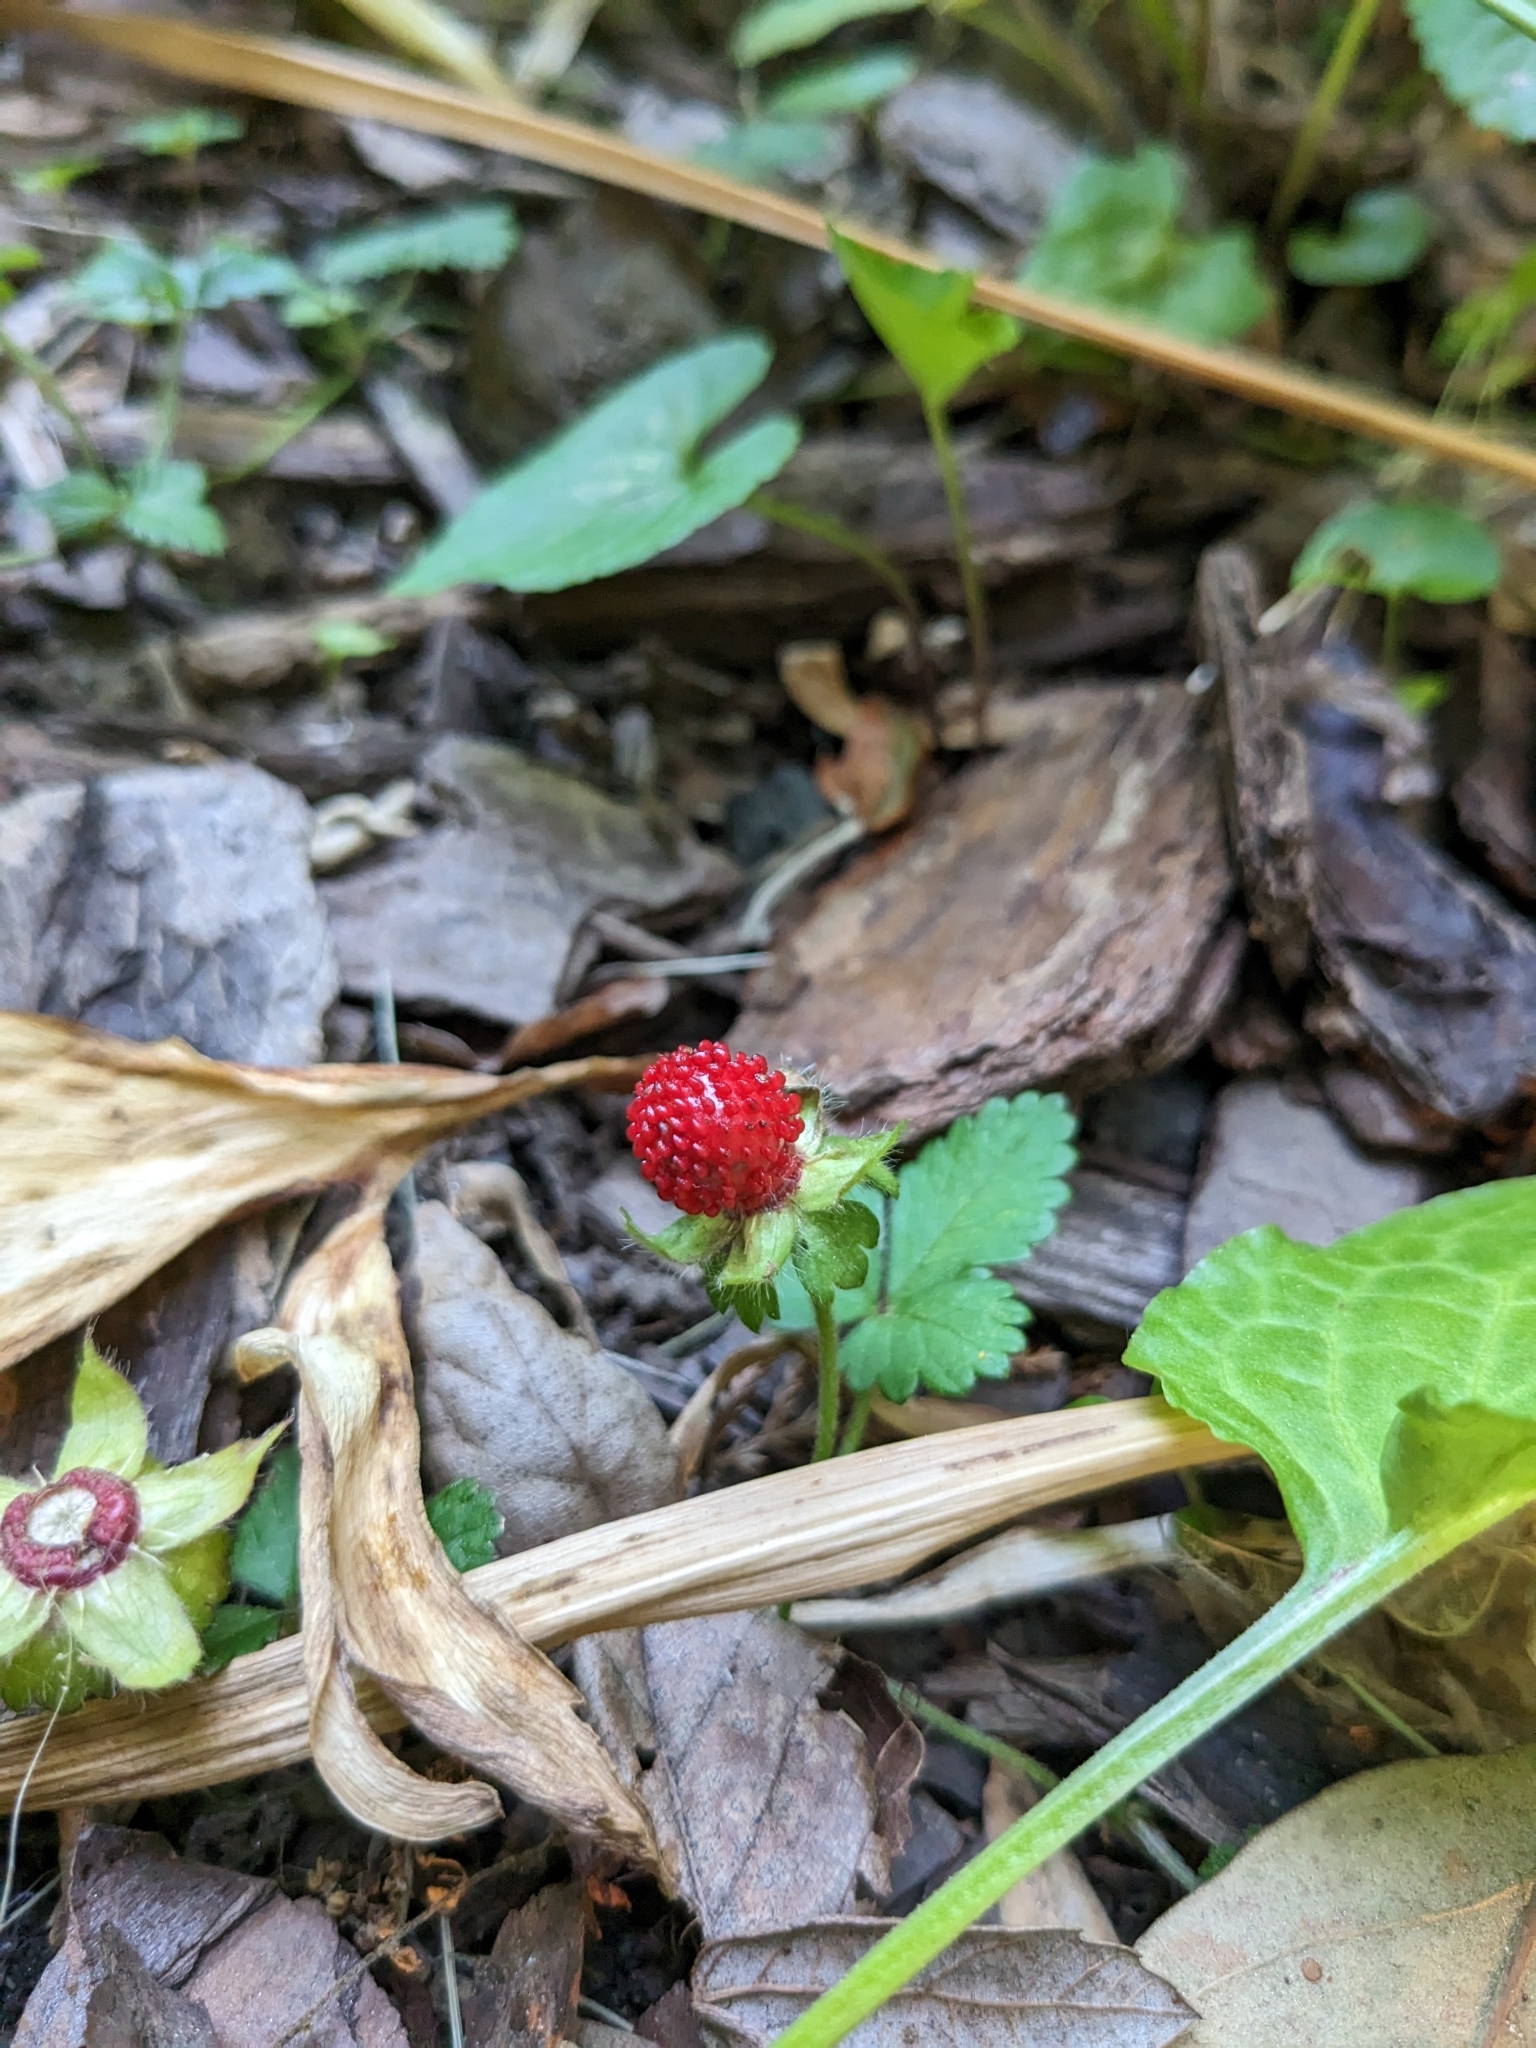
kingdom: Plantae
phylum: Tracheophyta
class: Magnoliopsida
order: Rosales
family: Rosaceae
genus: Potentilla
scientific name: Potentilla indica
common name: Yellow-flowered strawberry
